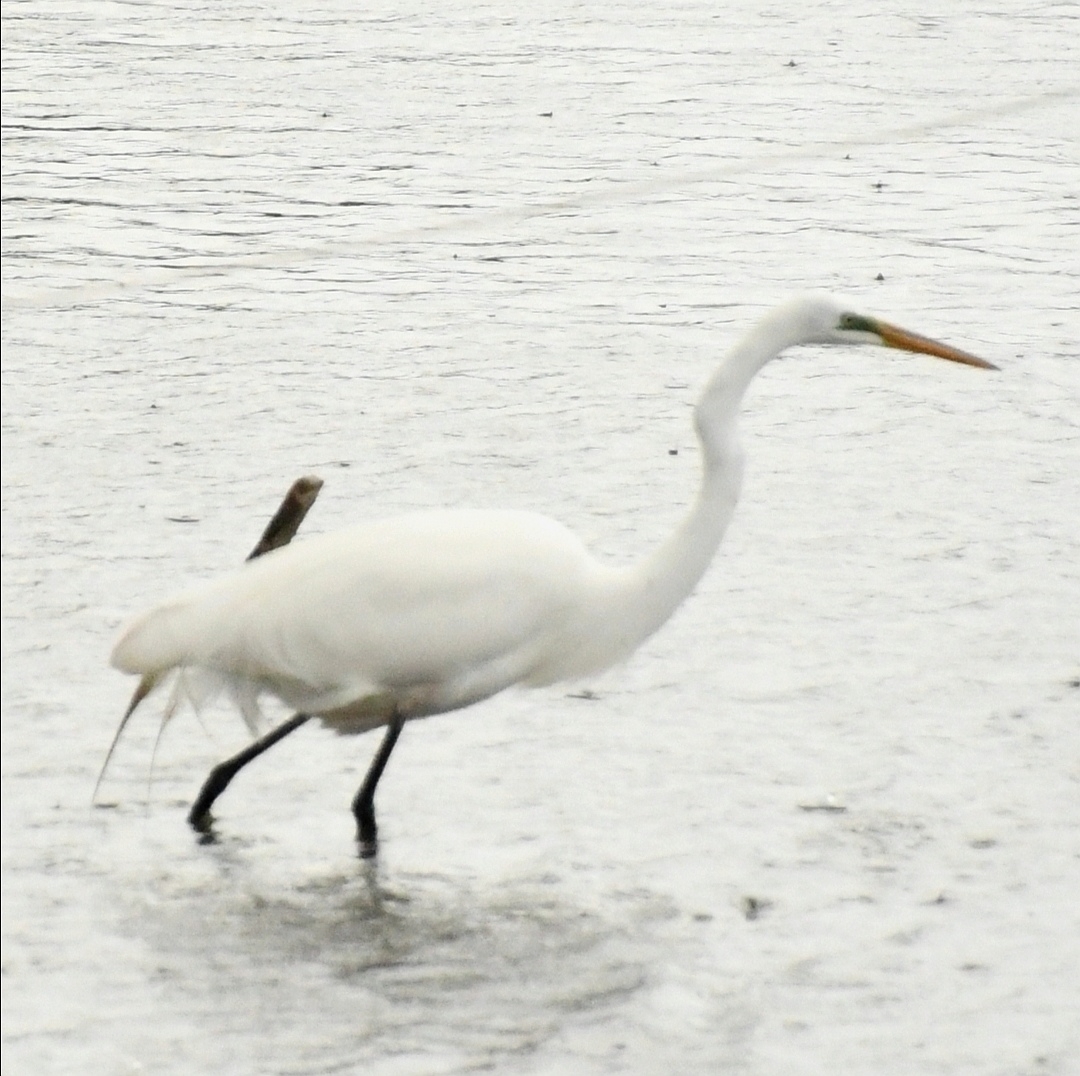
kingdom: Animalia
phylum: Chordata
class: Aves
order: Pelecaniformes
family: Ardeidae
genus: Ardea
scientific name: Ardea alba
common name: Great egret
